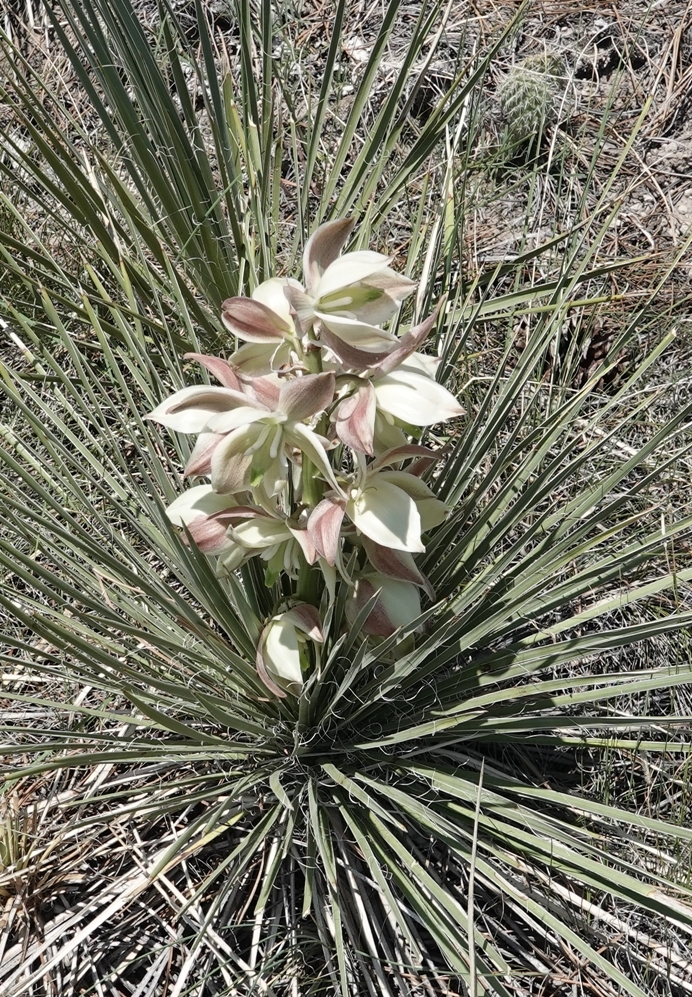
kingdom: Plantae
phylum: Tracheophyta
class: Liliopsida
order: Asparagales
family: Asparagaceae
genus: Yucca
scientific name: Yucca glauca
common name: Great plains yucca
